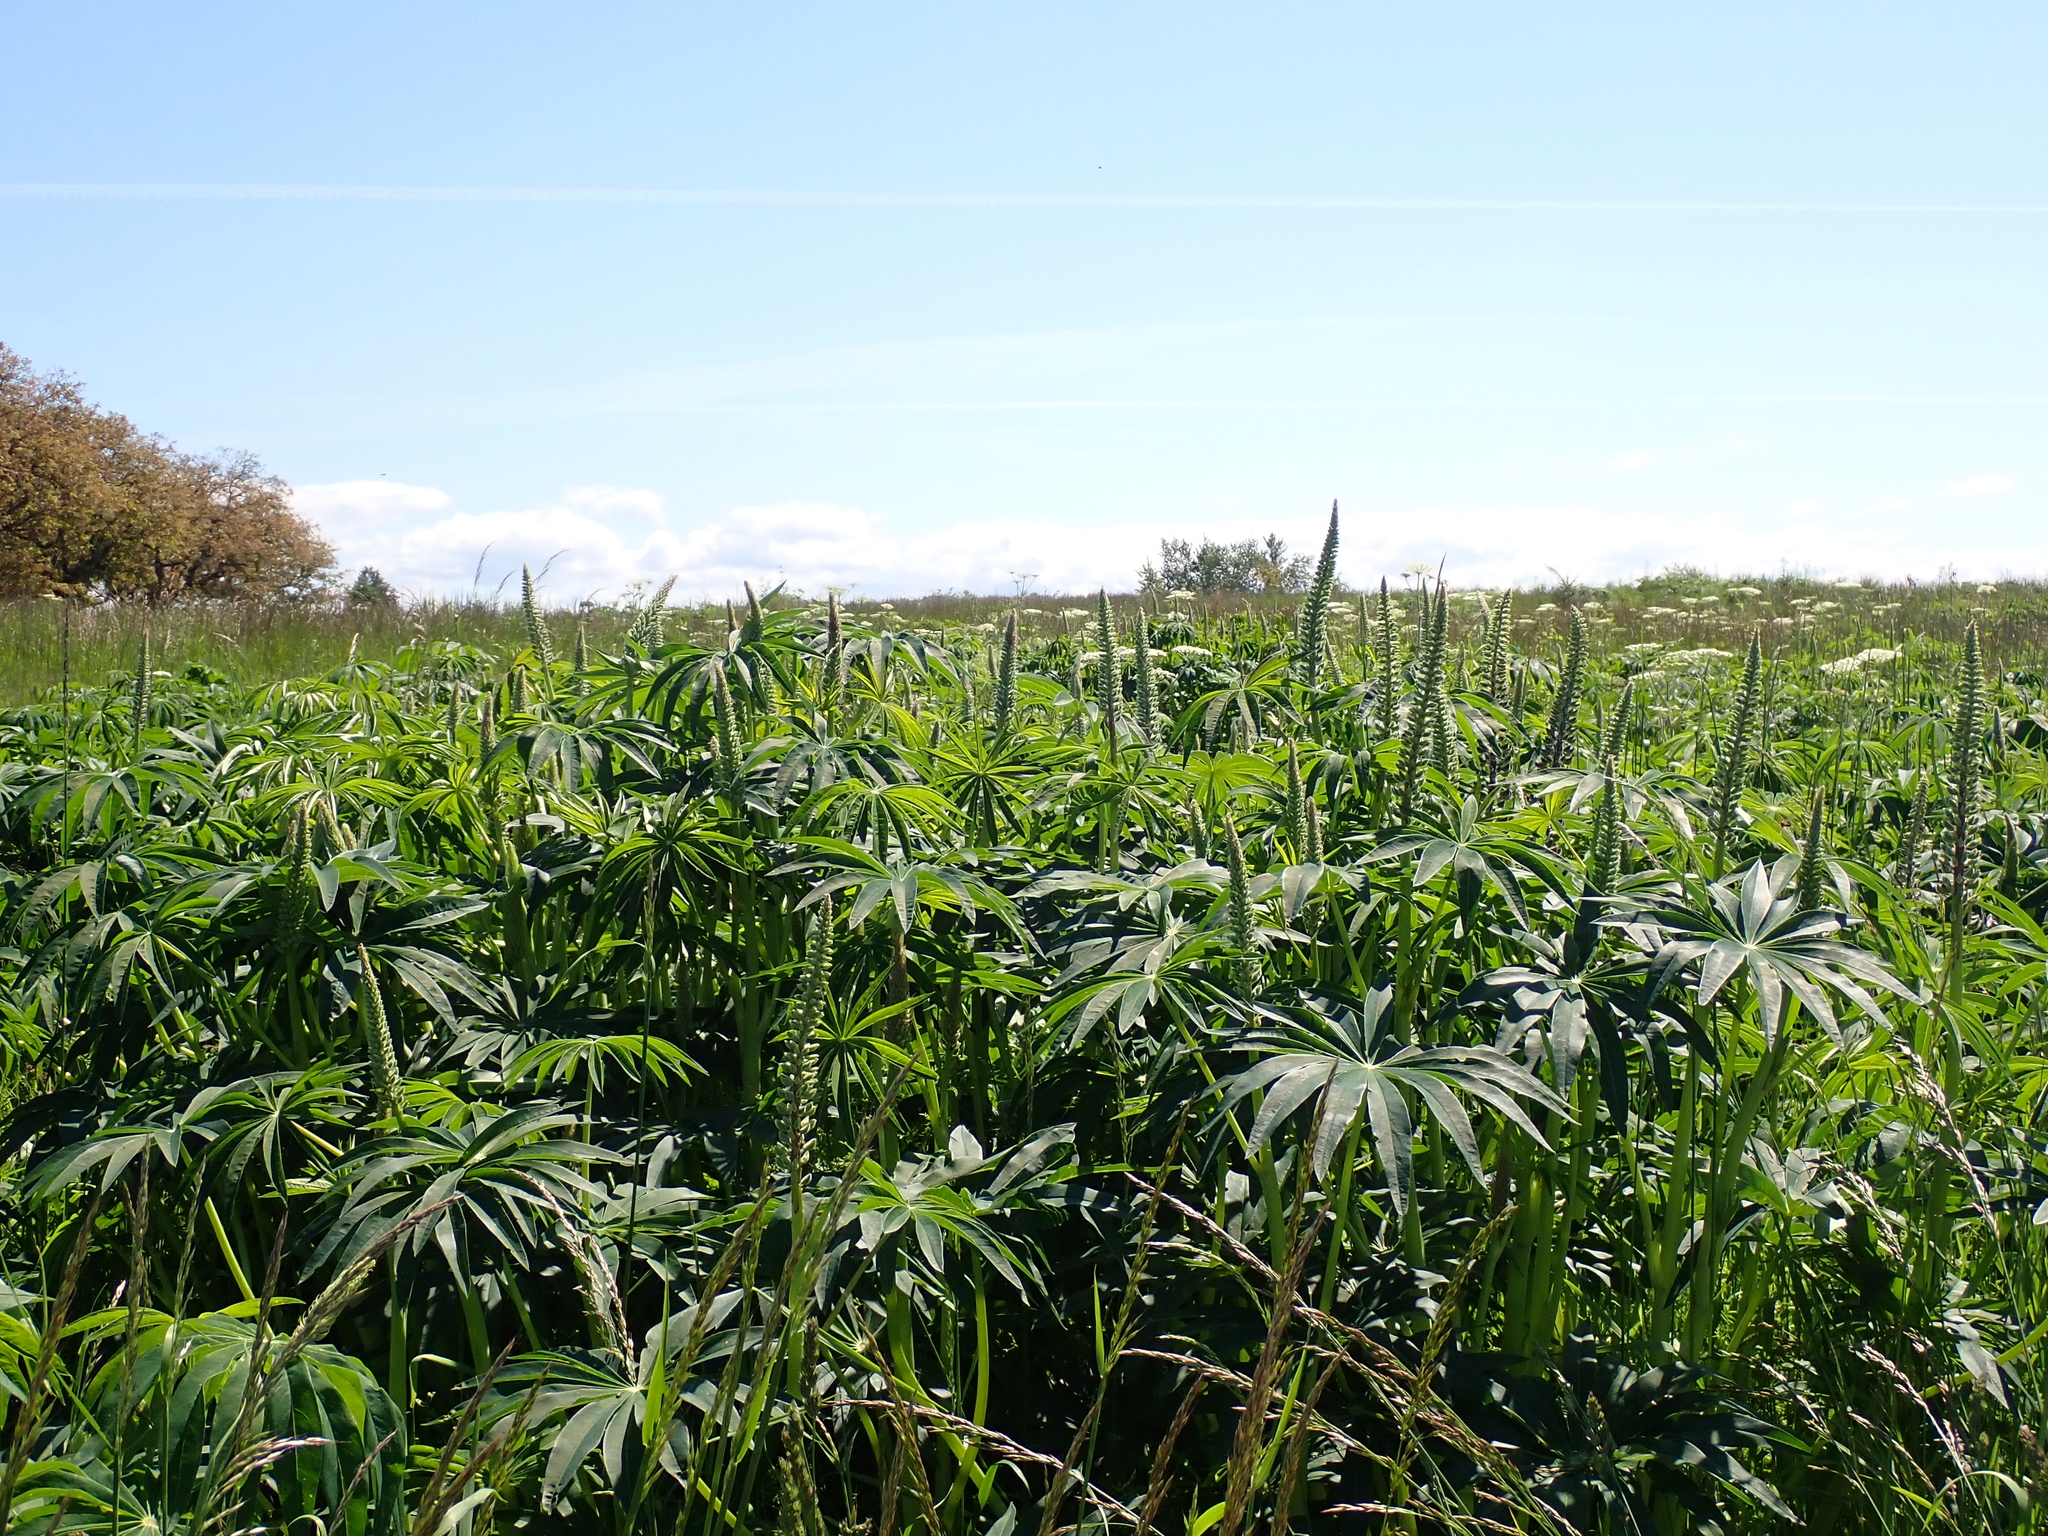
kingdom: Plantae
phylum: Tracheophyta
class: Magnoliopsida
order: Fabales
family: Fabaceae
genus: Lupinus
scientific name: Lupinus polyphyllus
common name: Garden lupin
